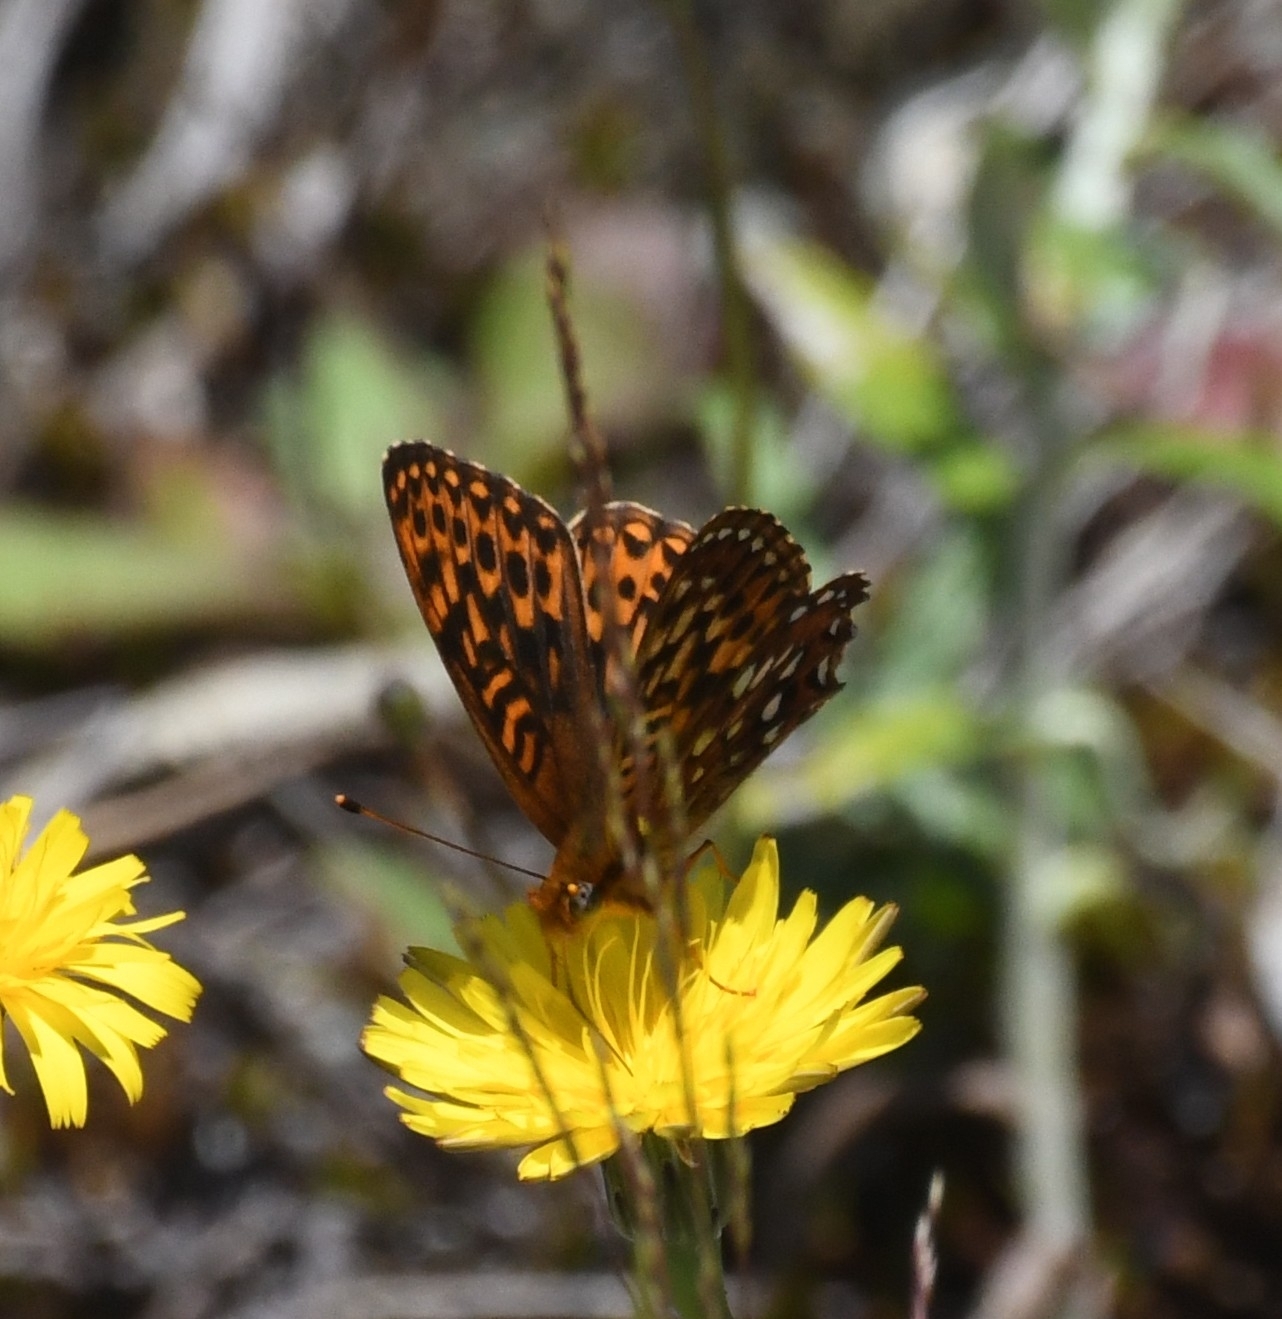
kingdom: Animalia
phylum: Arthropoda
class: Insecta
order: Lepidoptera
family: Nymphalidae
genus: Speyeria
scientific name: Speyeria hydaspe
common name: Hydaspe fritillary
